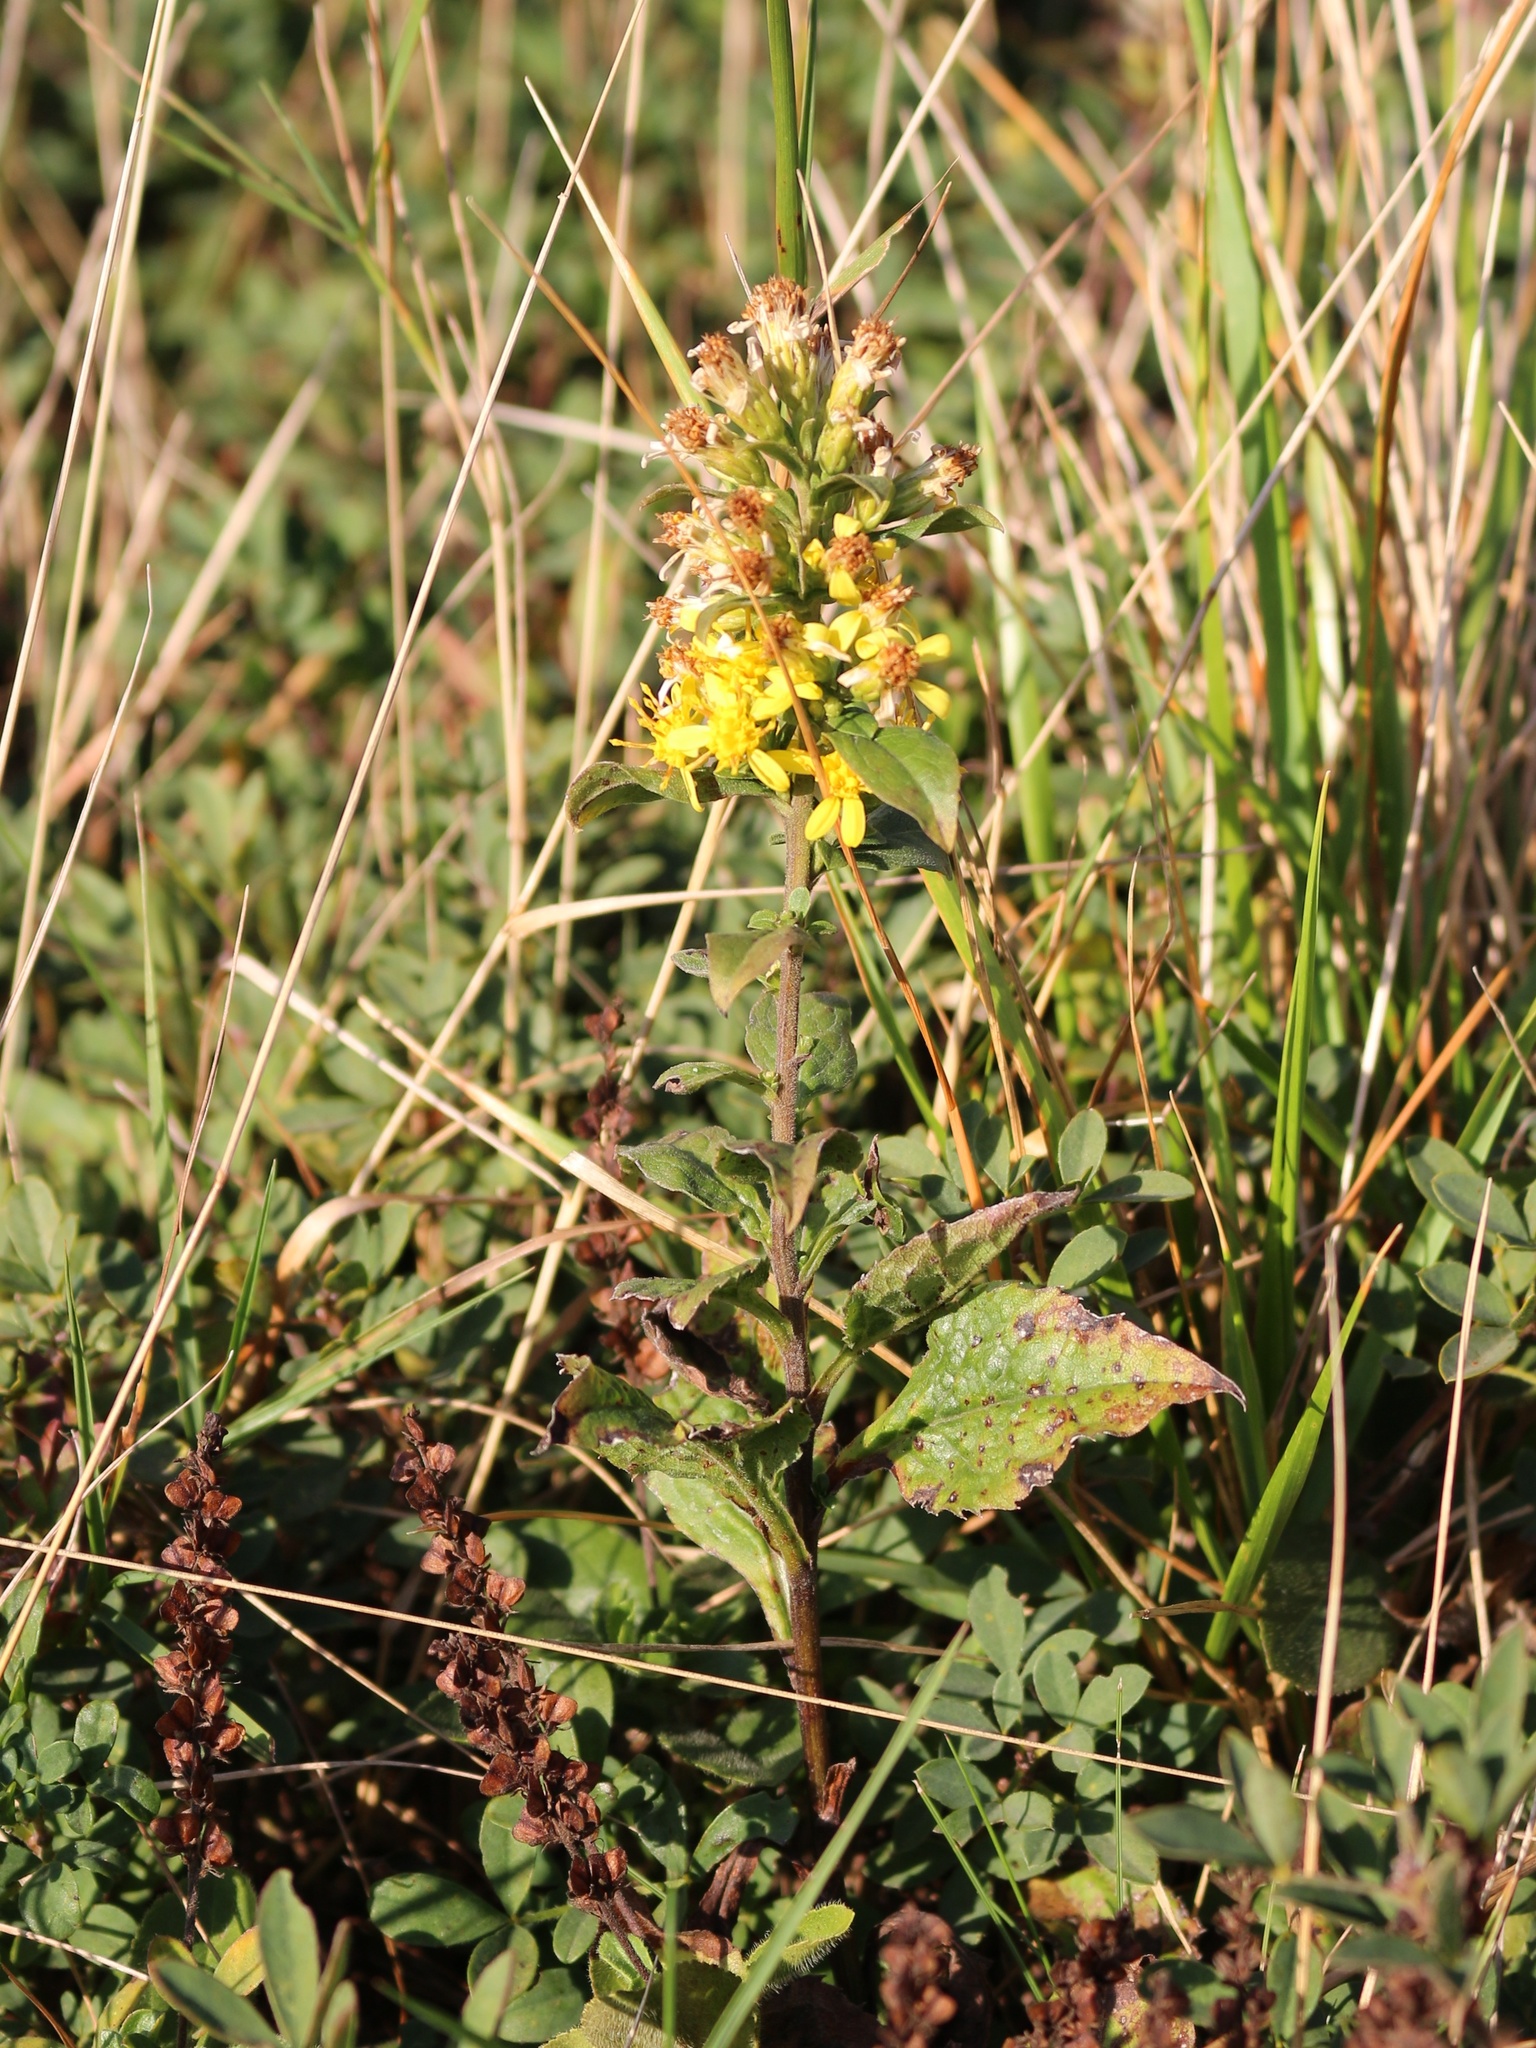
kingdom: Plantae
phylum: Tracheophyta
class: Magnoliopsida
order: Asterales
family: Asteraceae
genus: Solidago
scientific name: Solidago virgaurea
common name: Goldenrod
